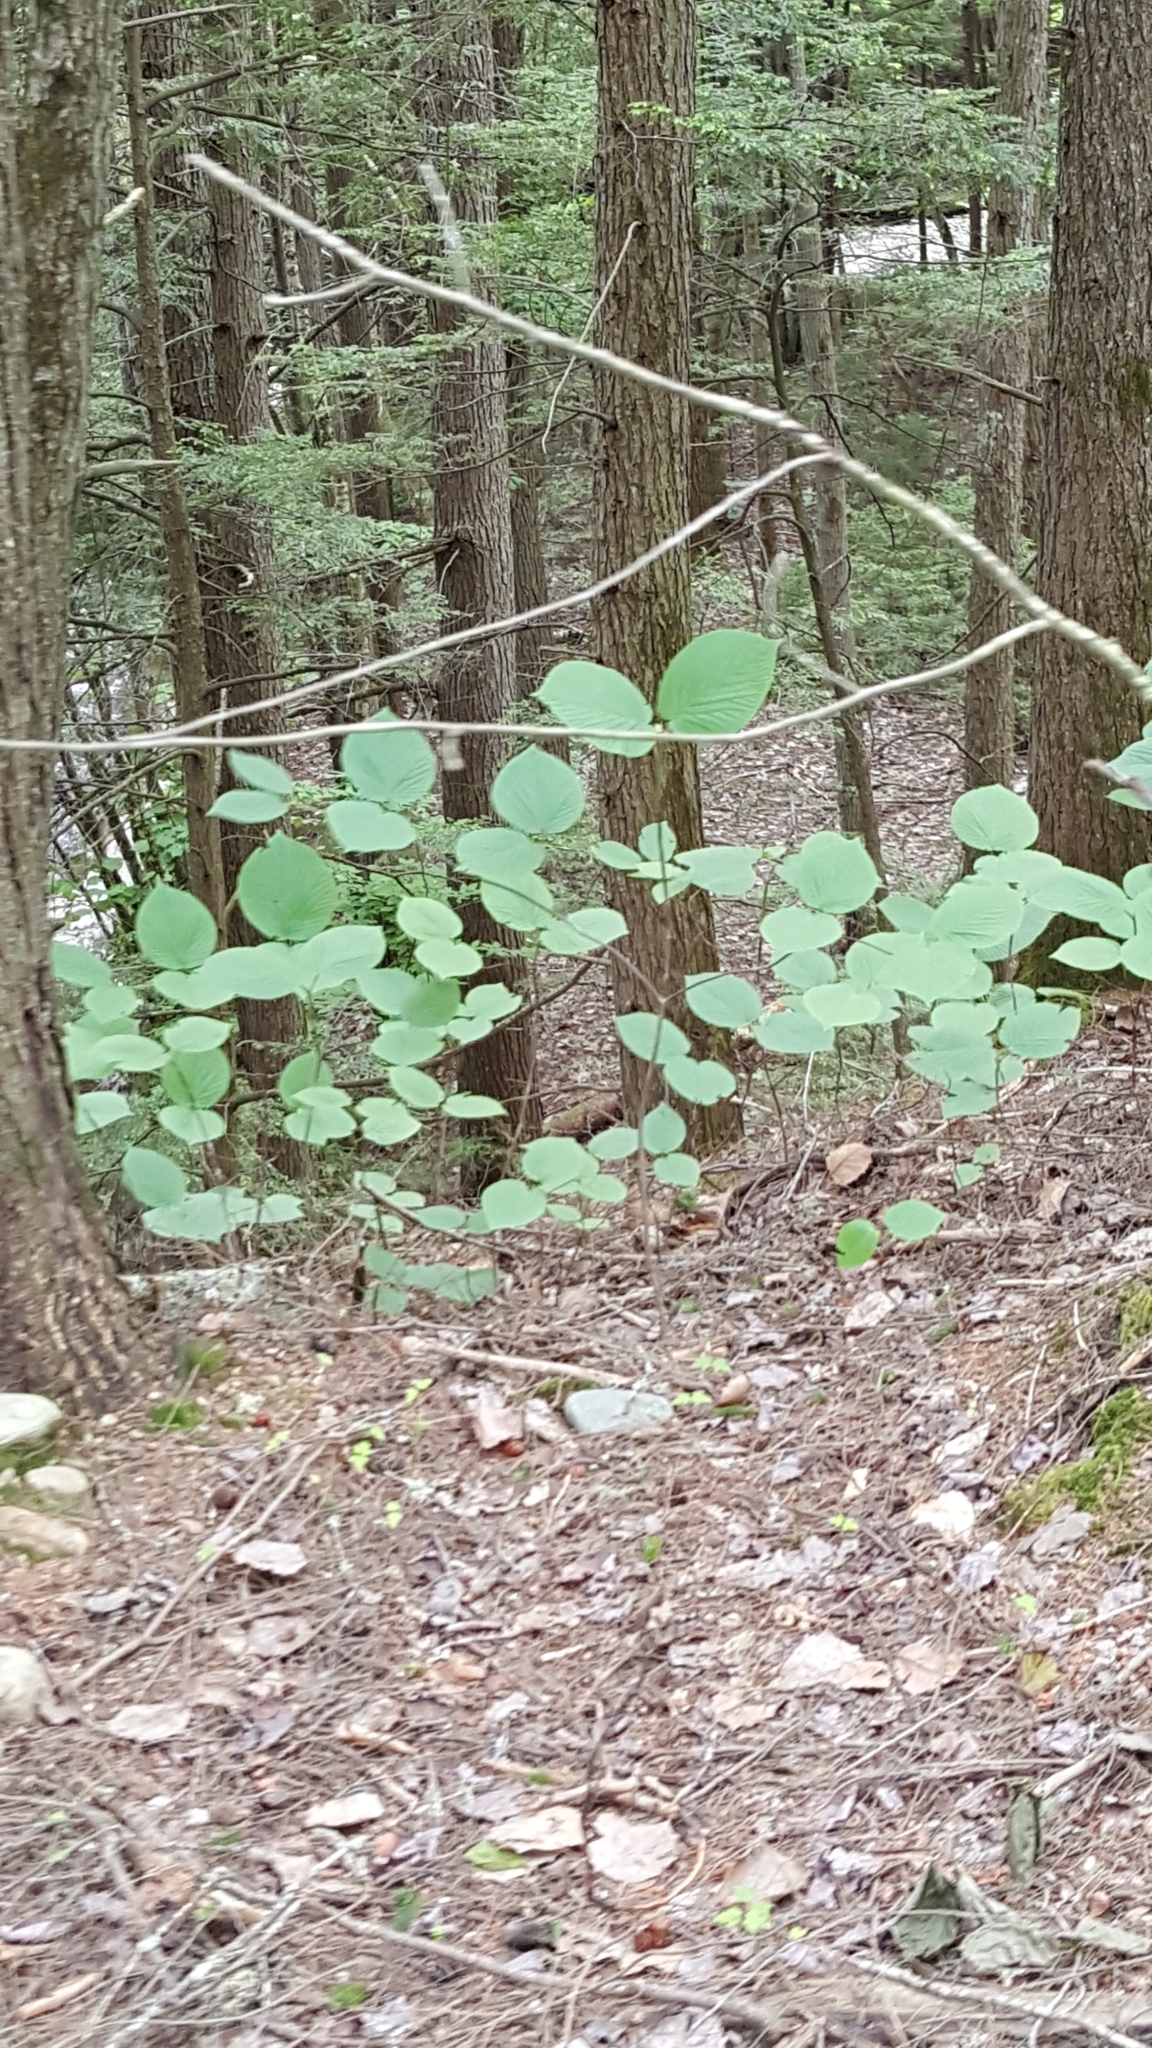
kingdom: Plantae
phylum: Tracheophyta
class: Magnoliopsida
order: Dipsacales
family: Viburnaceae
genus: Viburnum
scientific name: Viburnum lantanoides
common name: Hobblebush
